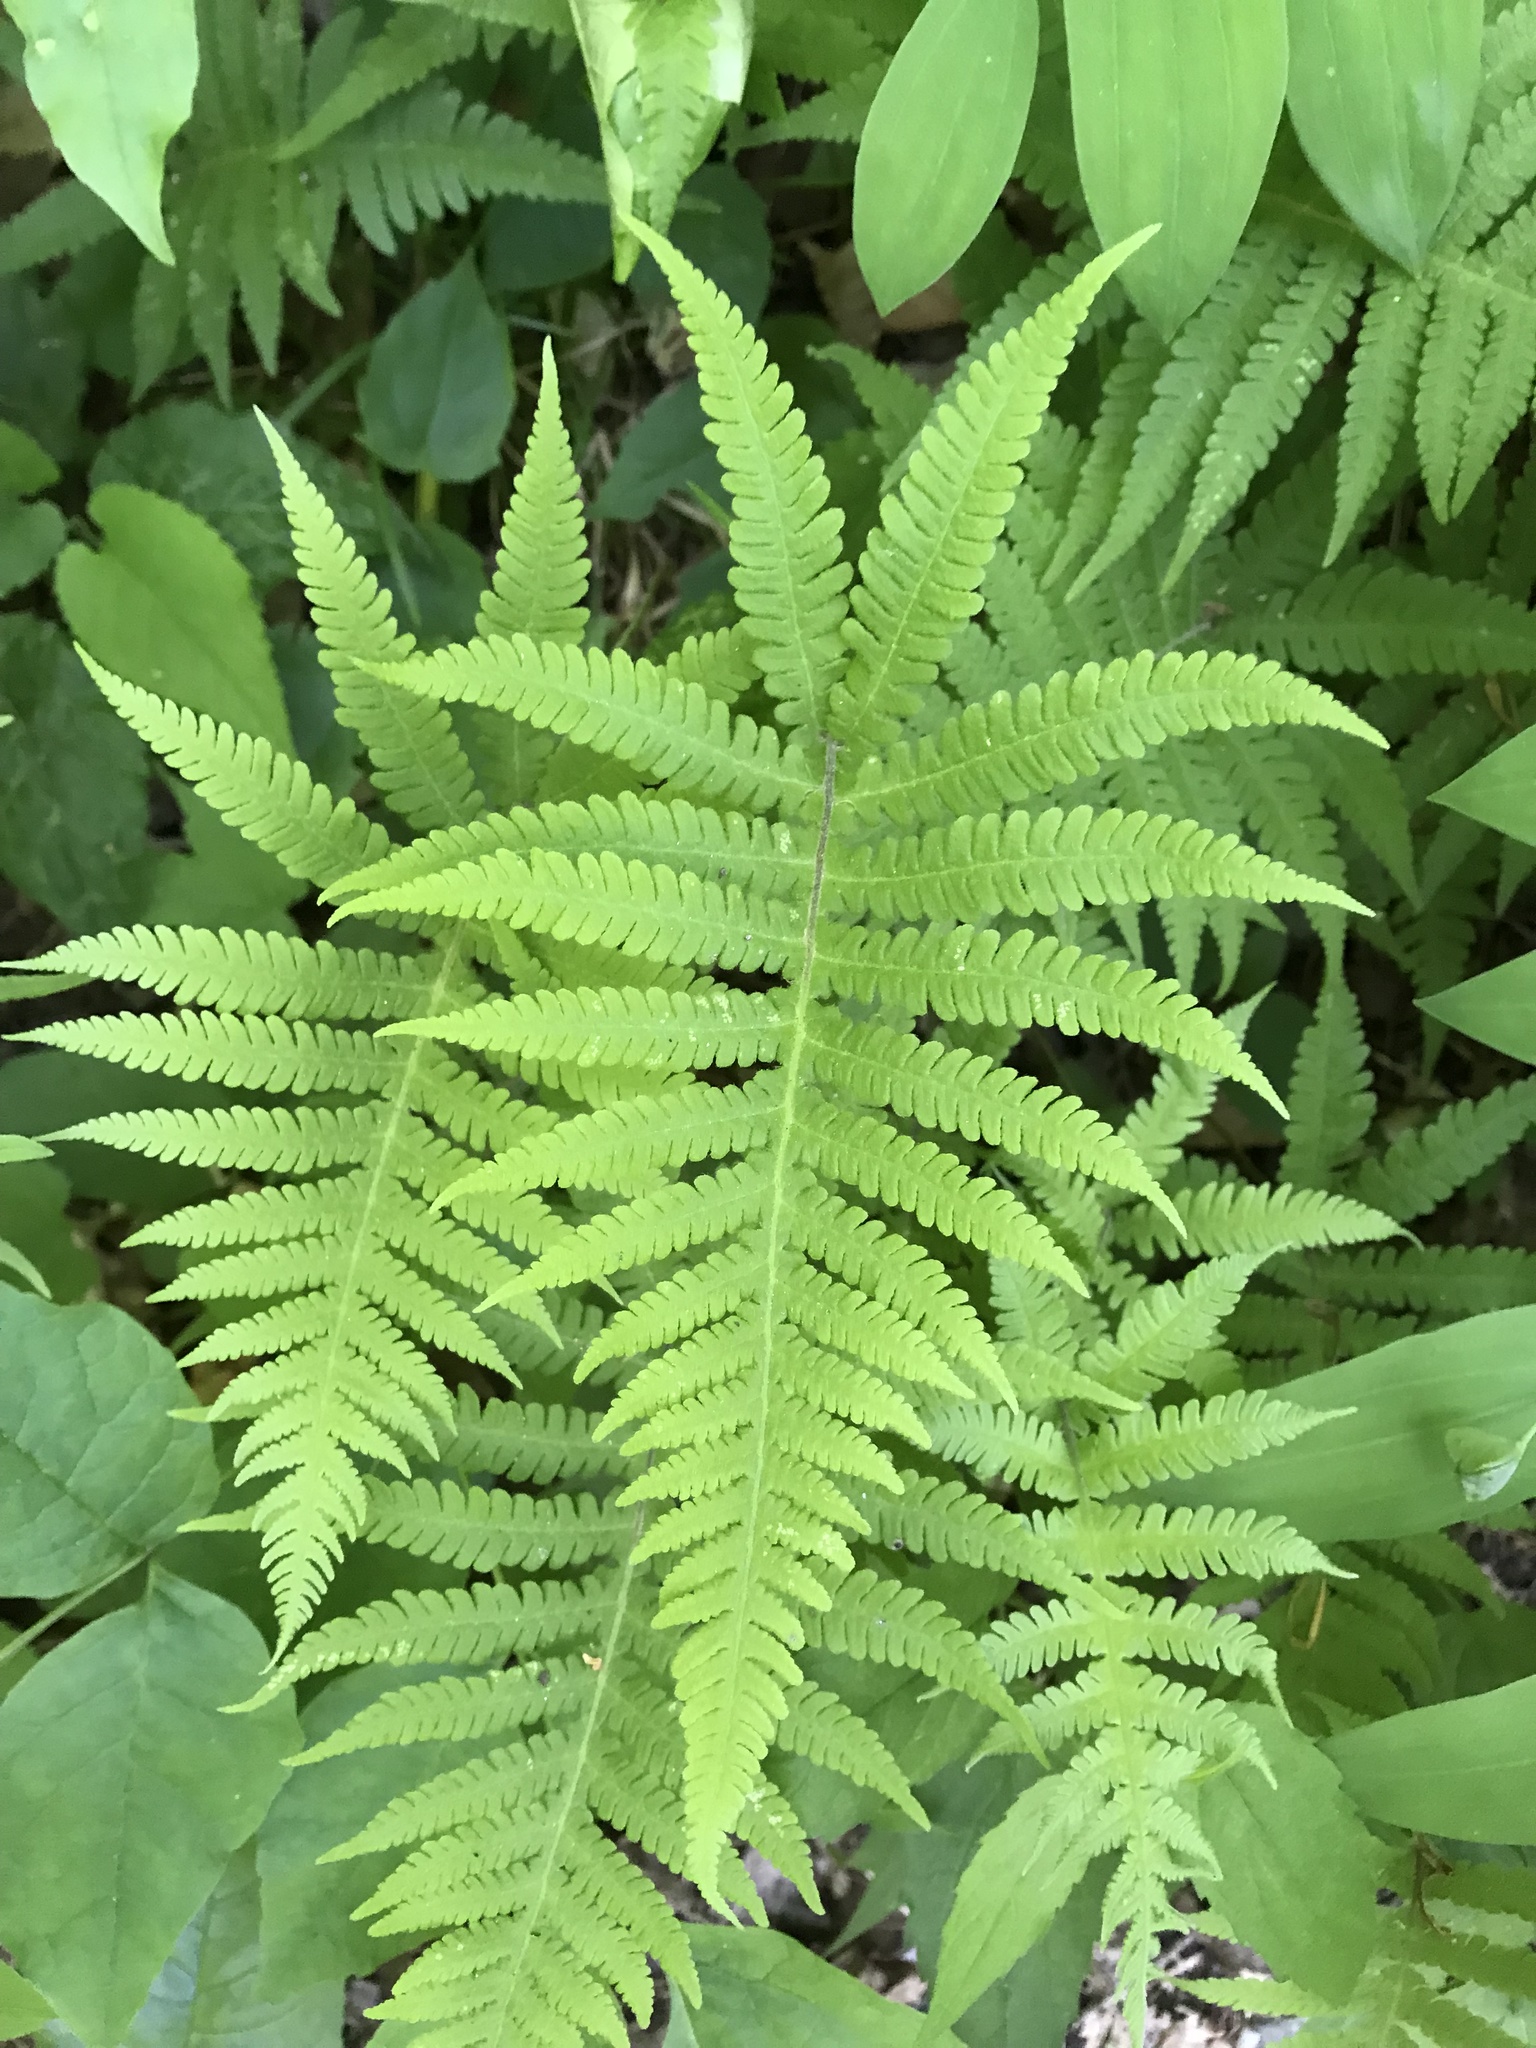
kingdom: Plantae
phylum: Tracheophyta
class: Polypodiopsida
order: Polypodiales
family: Thelypteridaceae
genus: Phegopteris
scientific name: Phegopteris connectilis
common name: Beech fern
